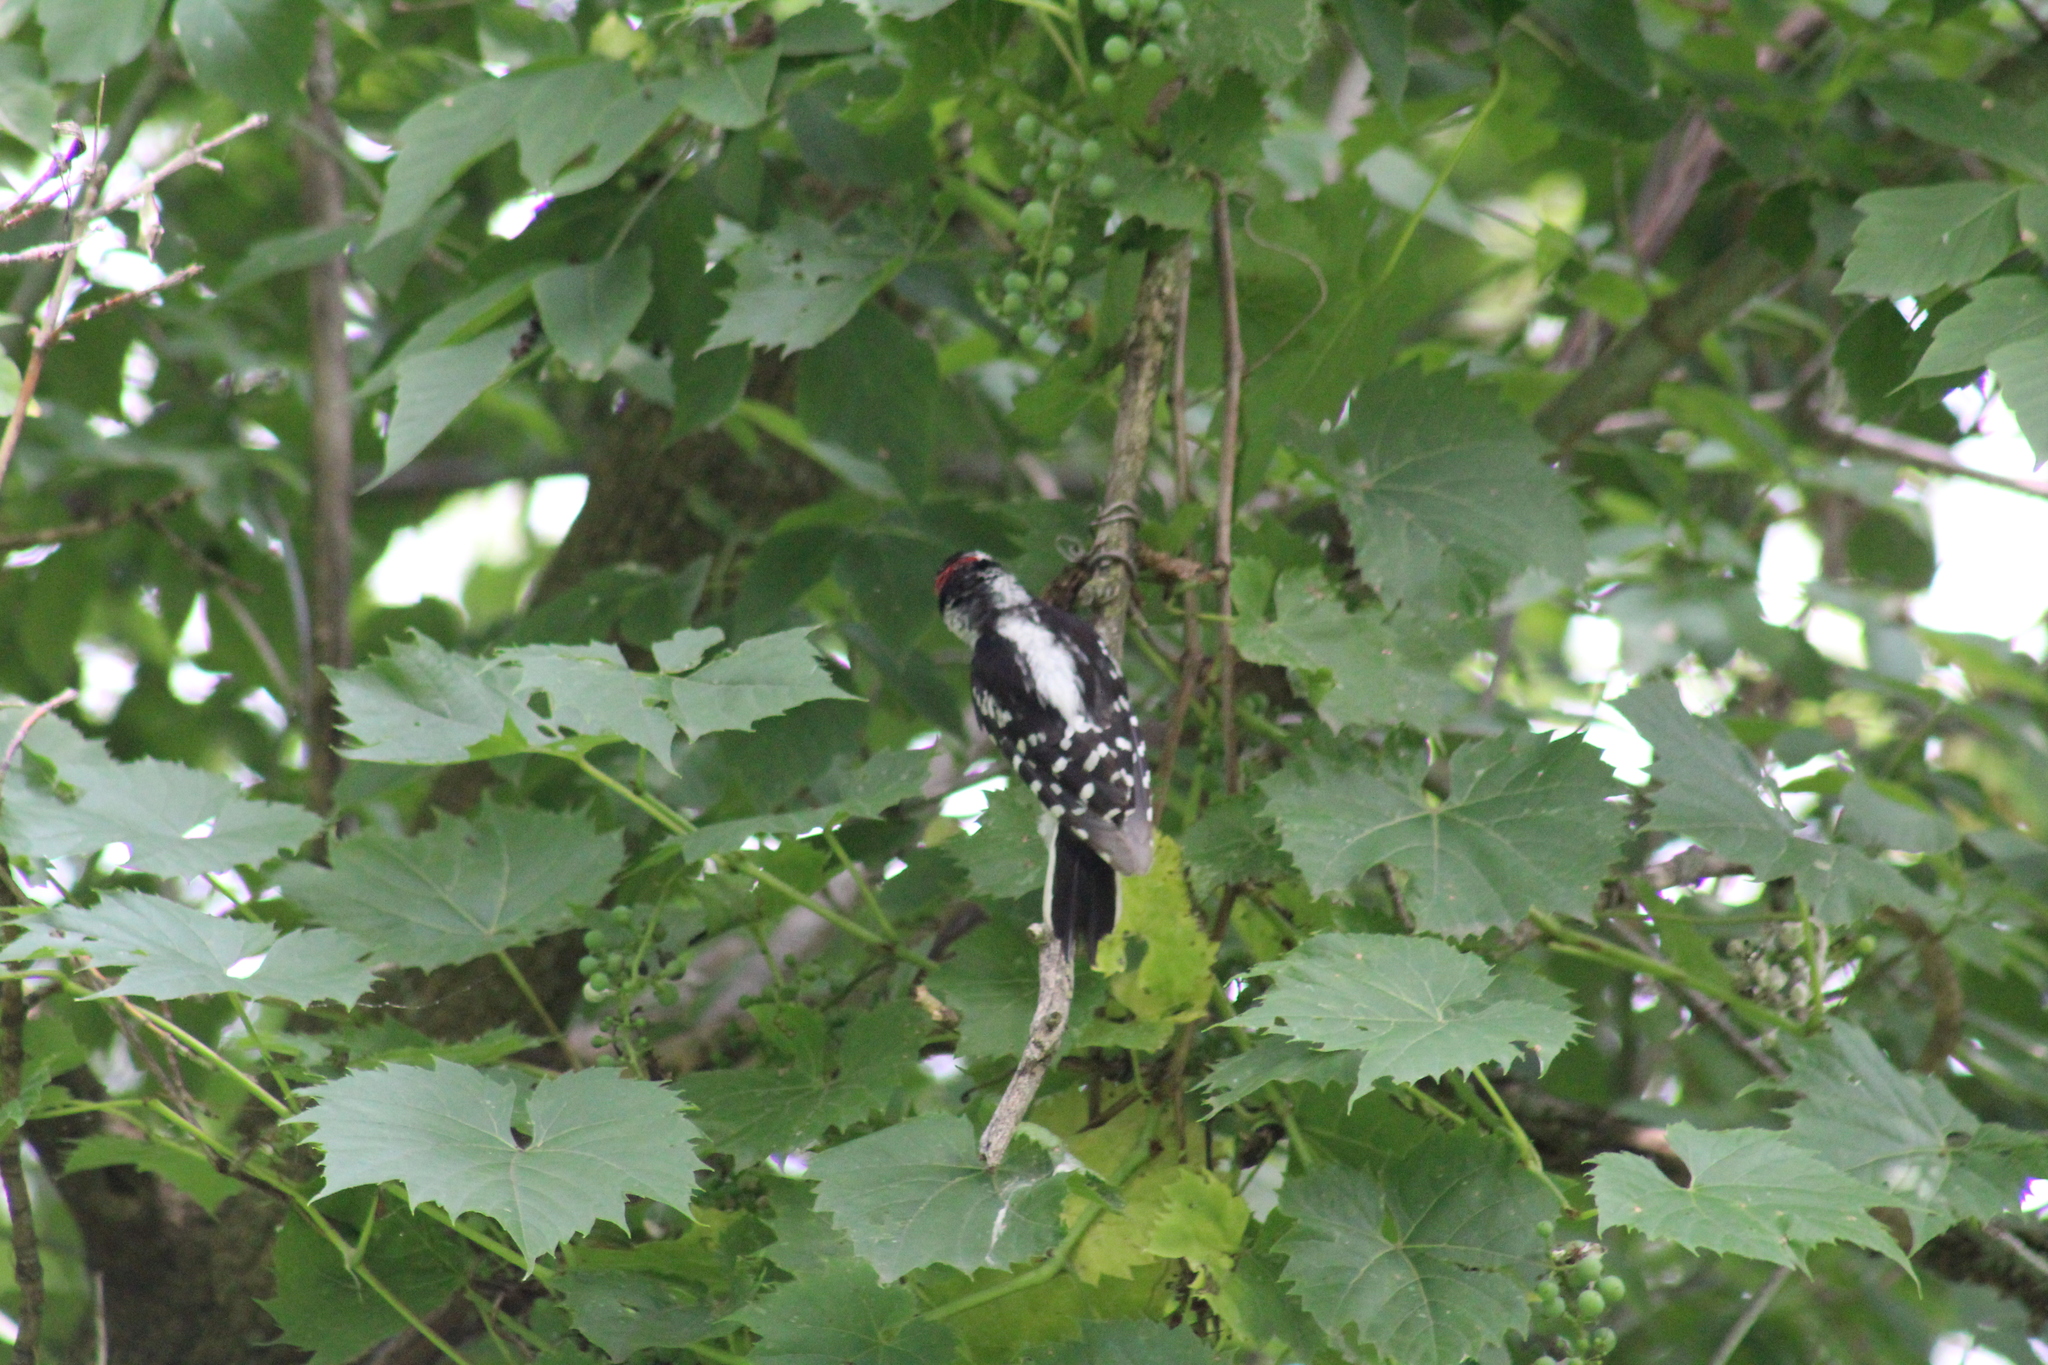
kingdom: Animalia
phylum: Chordata
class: Aves
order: Piciformes
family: Picidae
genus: Dryobates
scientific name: Dryobates pubescens
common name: Downy woodpecker
